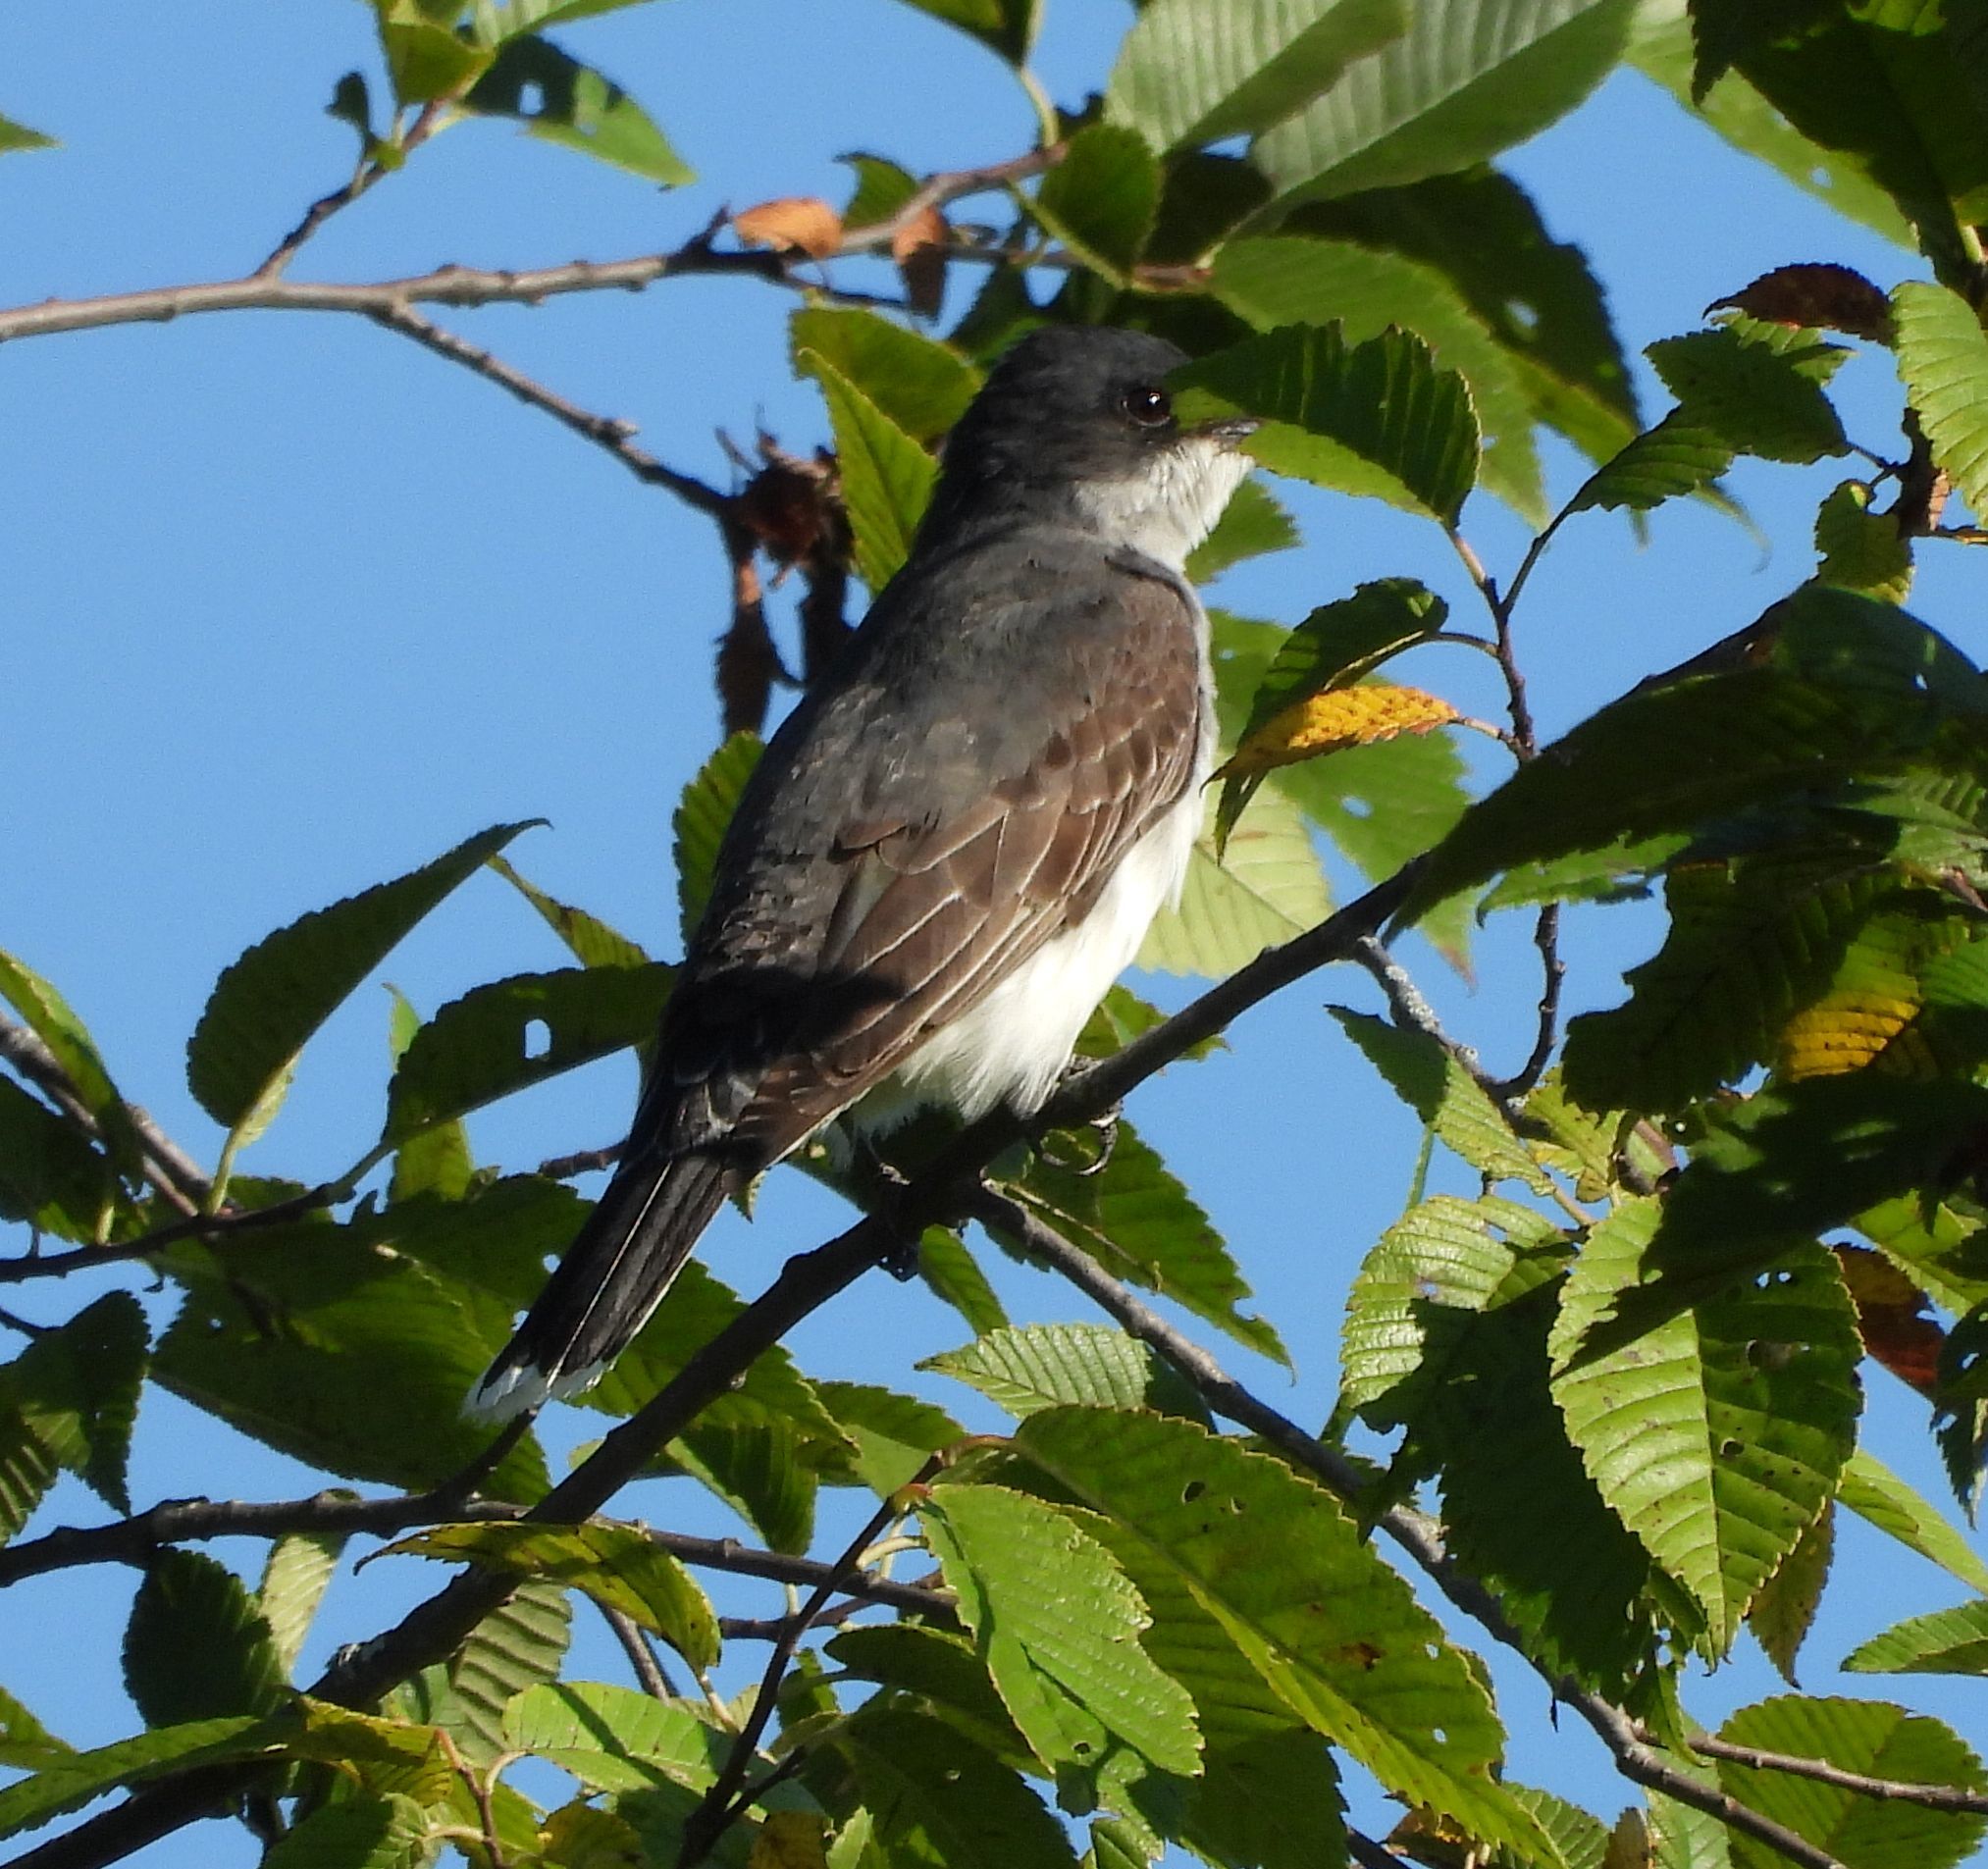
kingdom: Animalia
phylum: Chordata
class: Aves
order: Passeriformes
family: Tyrannidae
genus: Tyrannus
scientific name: Tyrannus tyrannus
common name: Eastern kingbird
